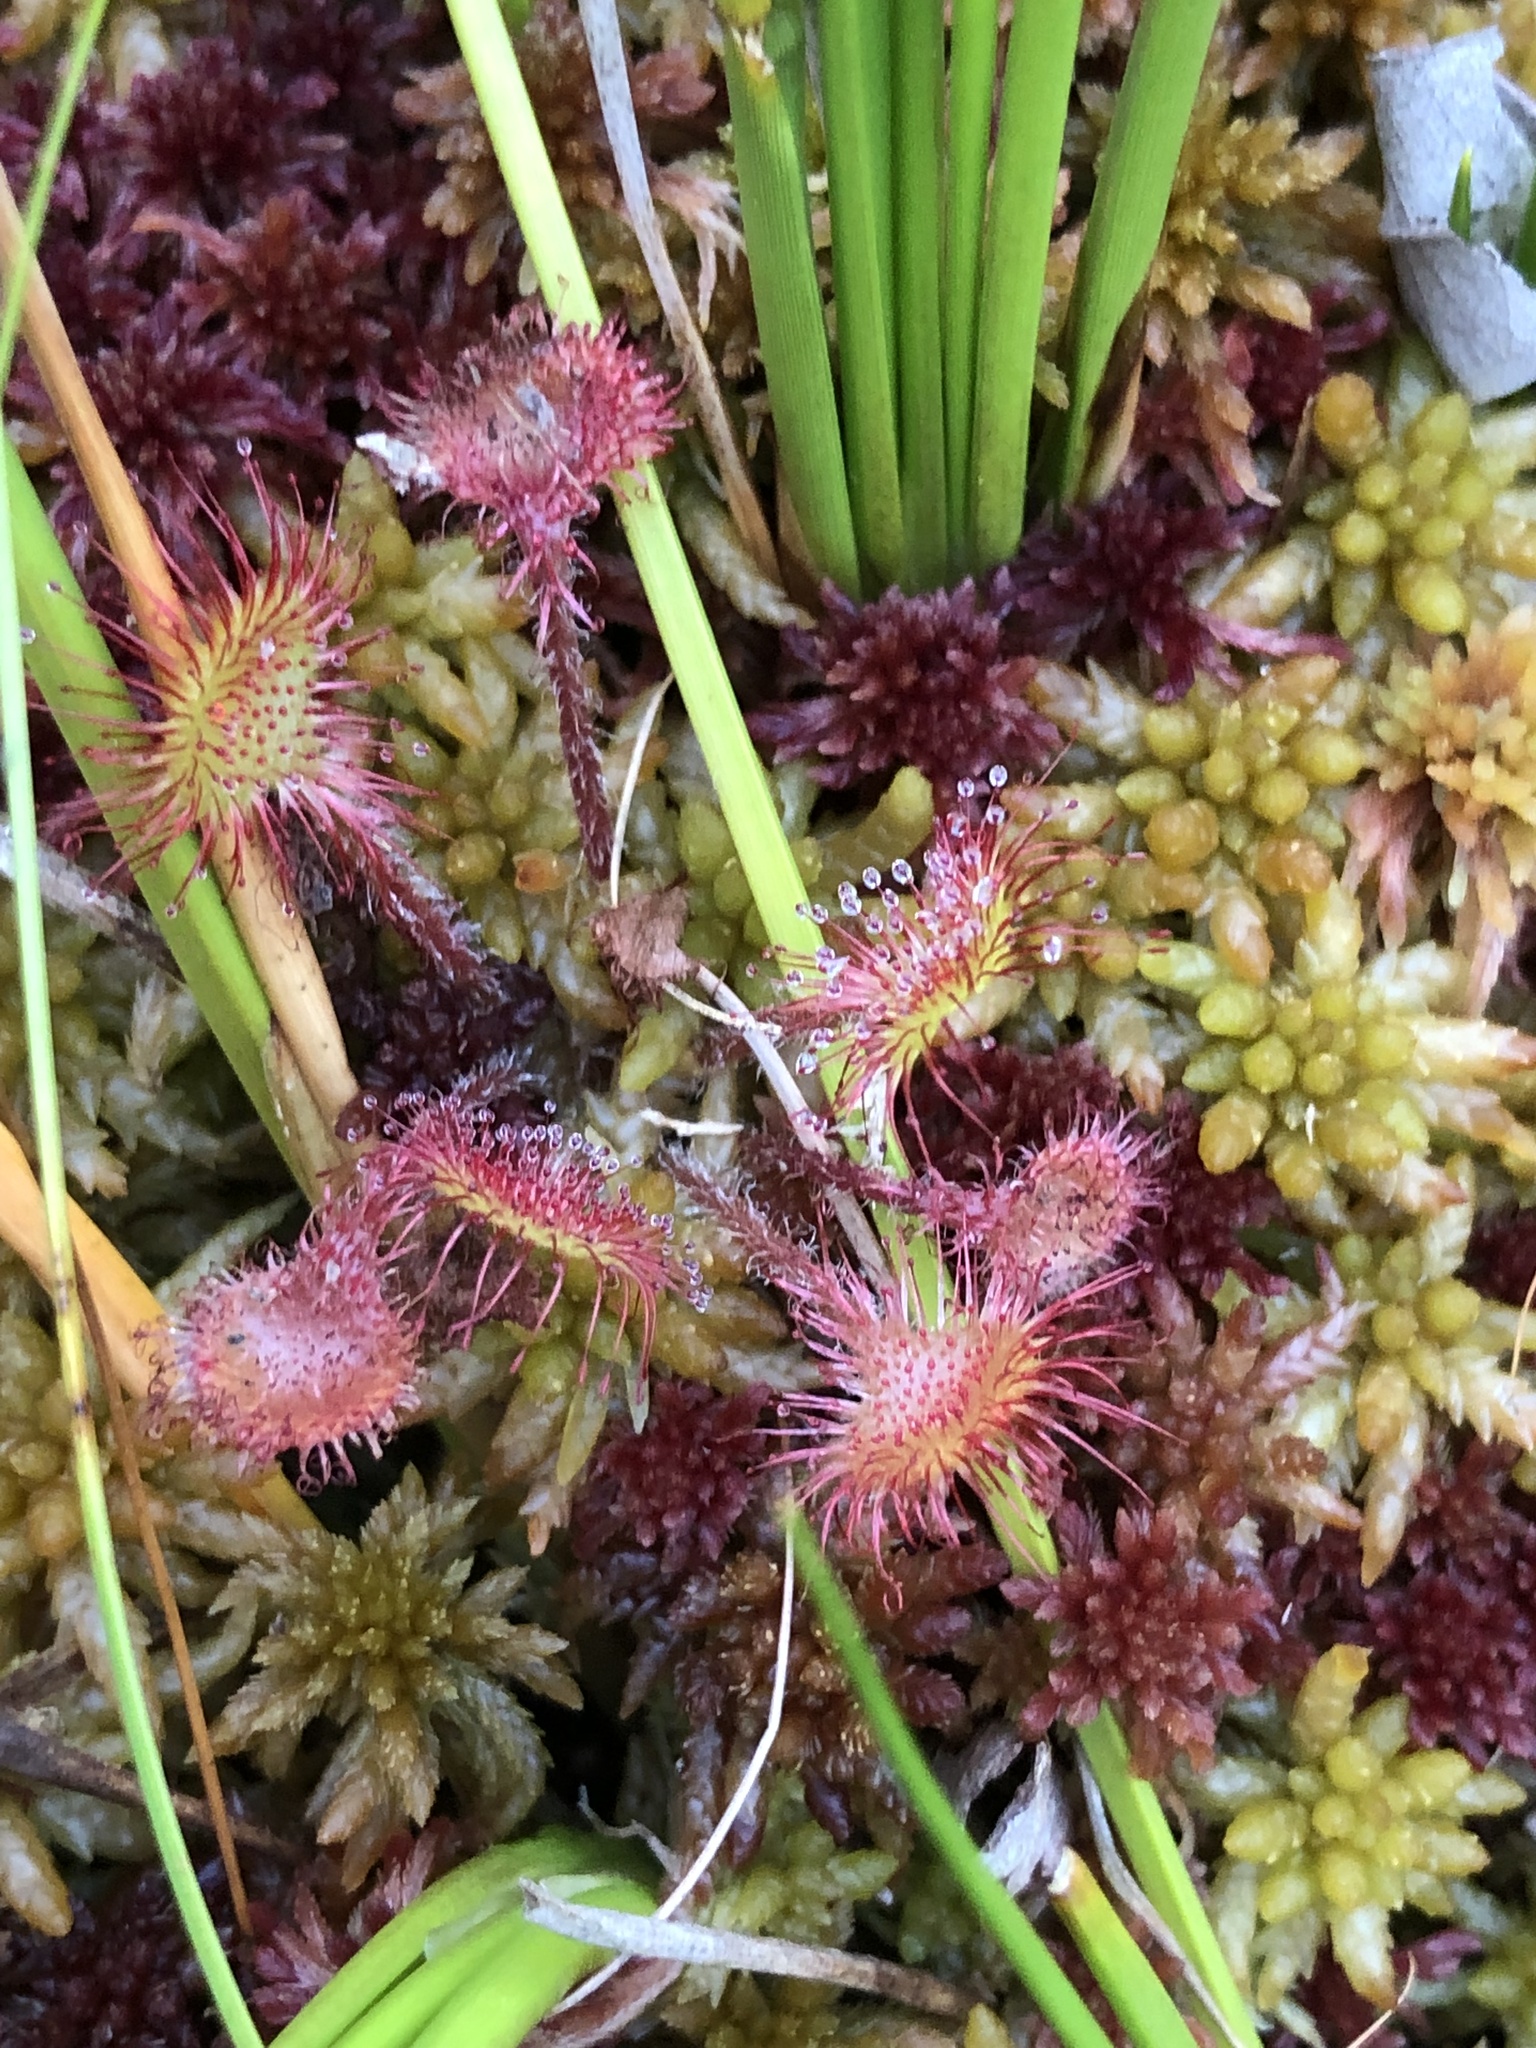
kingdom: Plantae
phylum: Tracheophyta
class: Magnoliopsida
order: Caryophyllales
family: Droseraceae
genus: Drosera
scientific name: Drosera rotundifolia
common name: Round-leaved sundew
